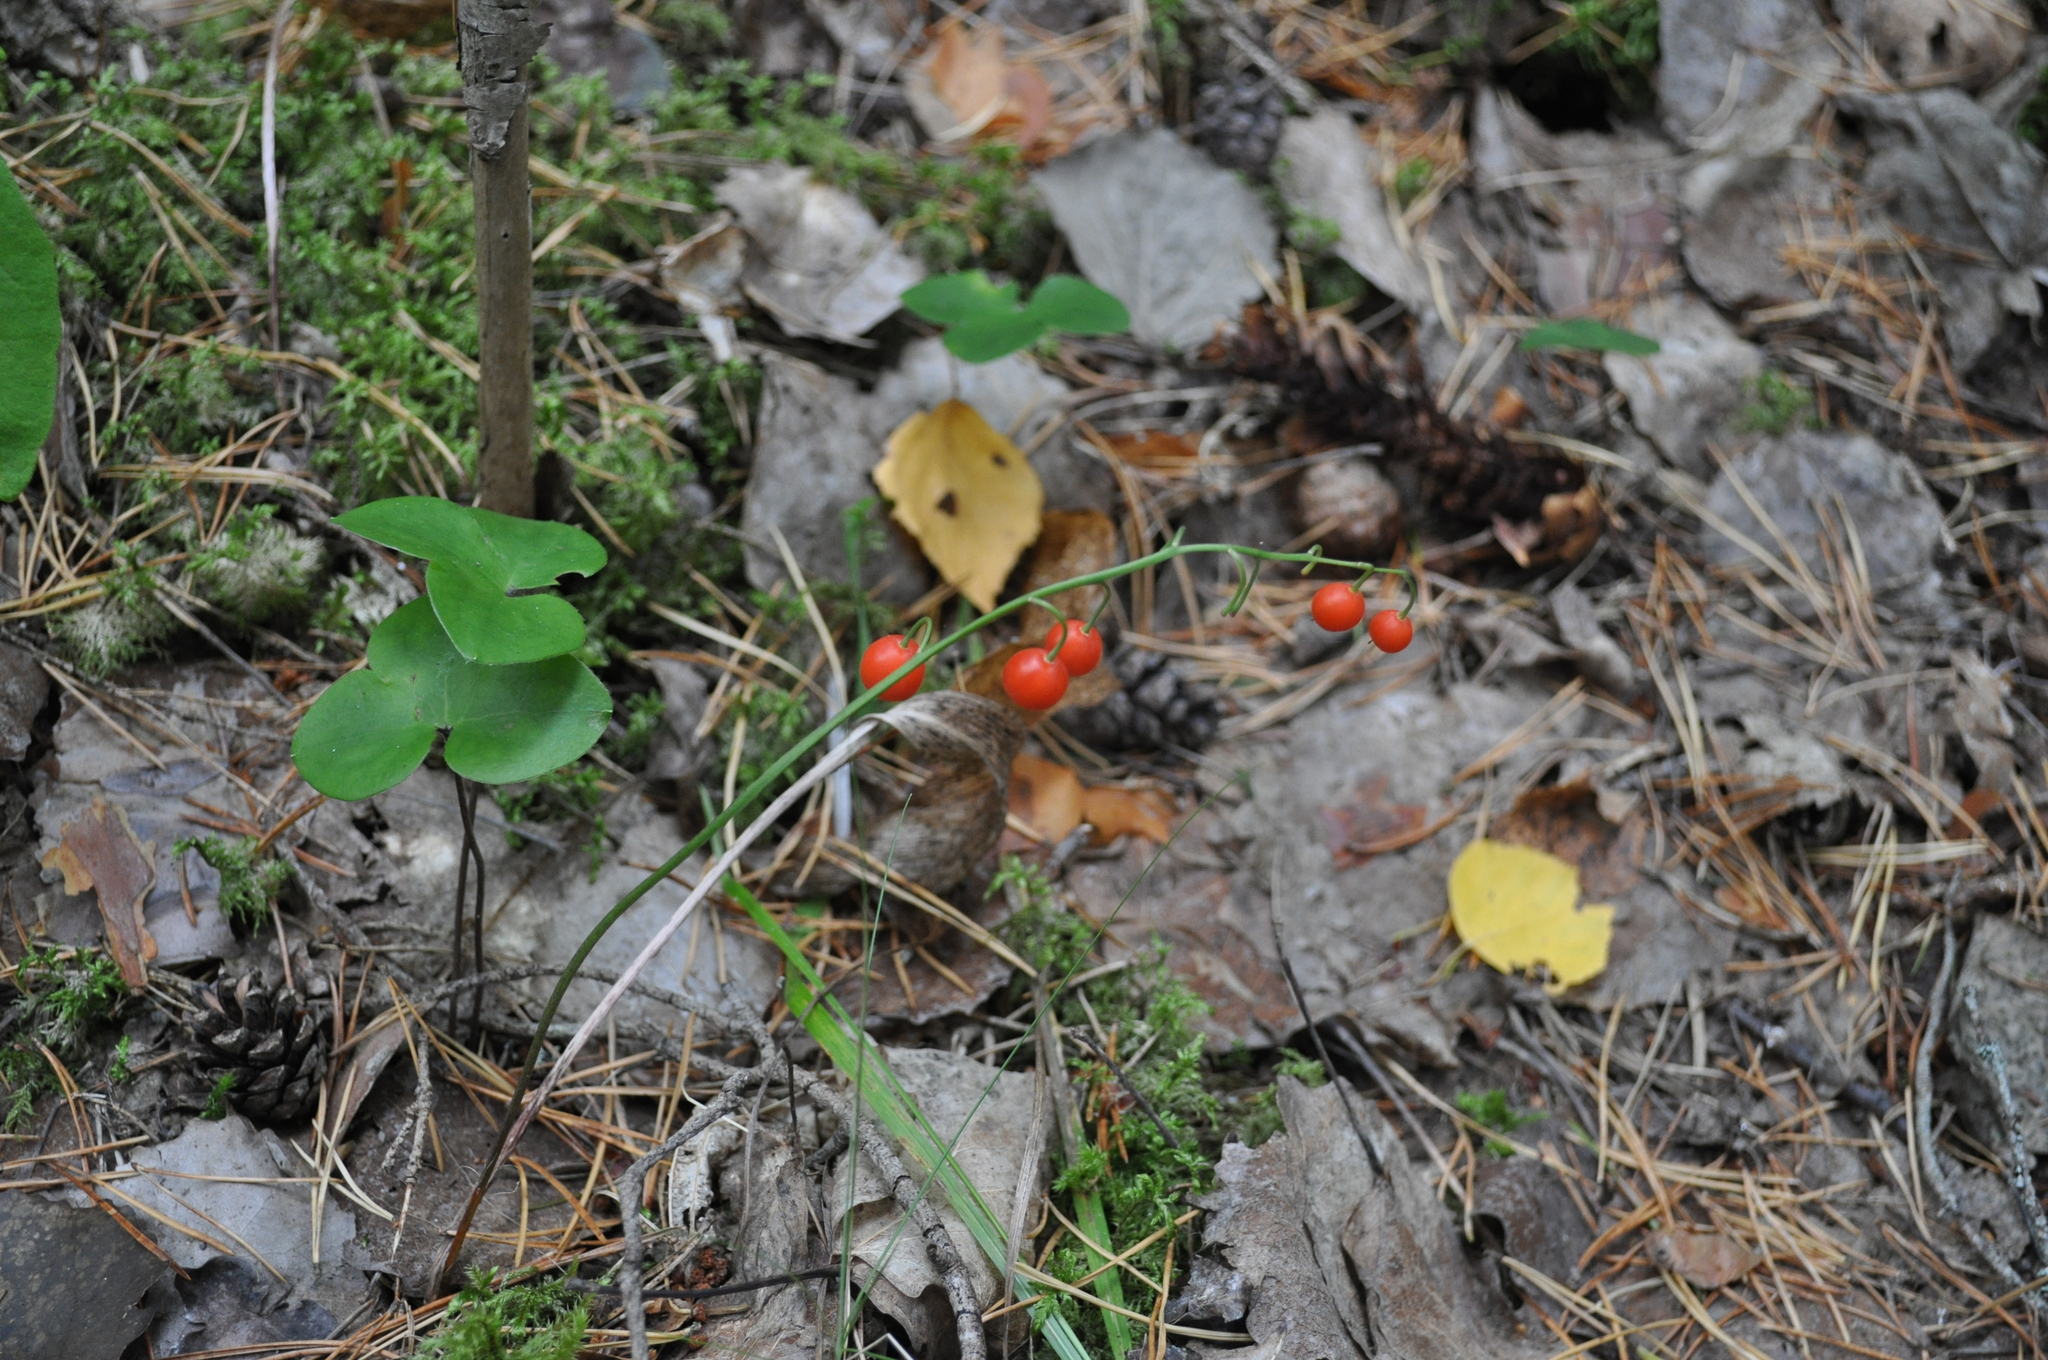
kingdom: Plantae
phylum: Tracheophyta
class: Liliopsida
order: Asparagales
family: Asparagaceae
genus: Convallaria
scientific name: Convallaria majalis
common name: Lily-of-the-valley
